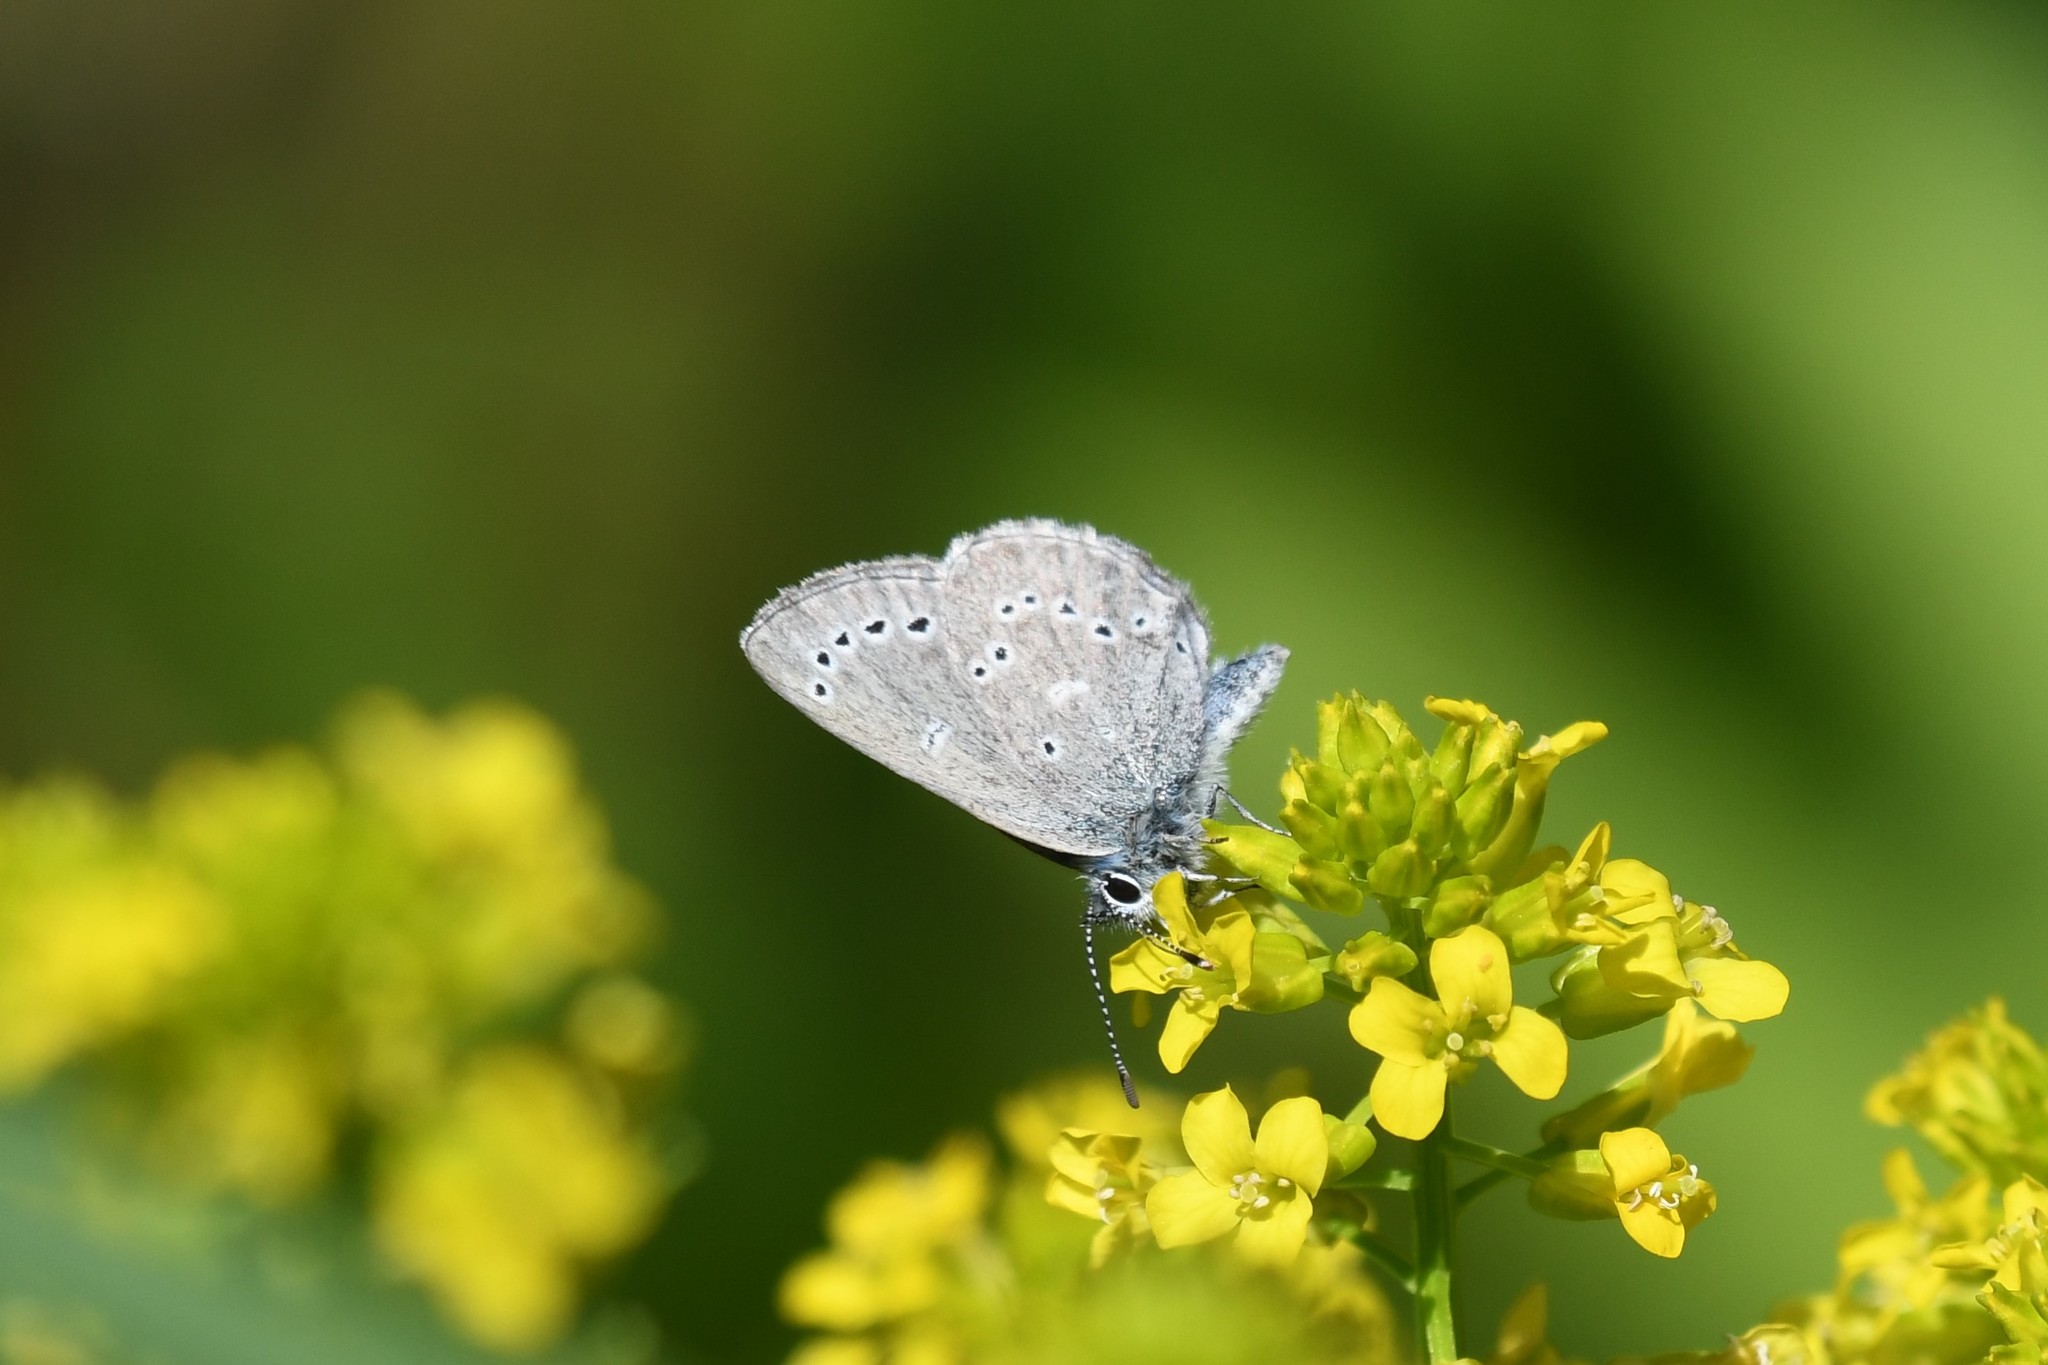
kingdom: Animalia
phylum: Arthropoda
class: Insecta
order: Lepidoptera
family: Lycaenidae
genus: Glaucopsyche
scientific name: Glaucopsyche lygdamus
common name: Silvery blue
